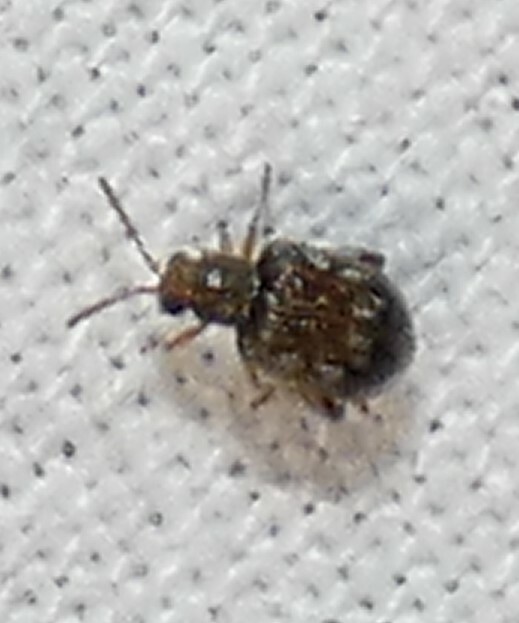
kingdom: Animalia
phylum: Arthropoda
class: Insecta
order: Coleoptera
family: Chrysomelidae
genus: Pseudolampis
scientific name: Pseudolampis guttata
